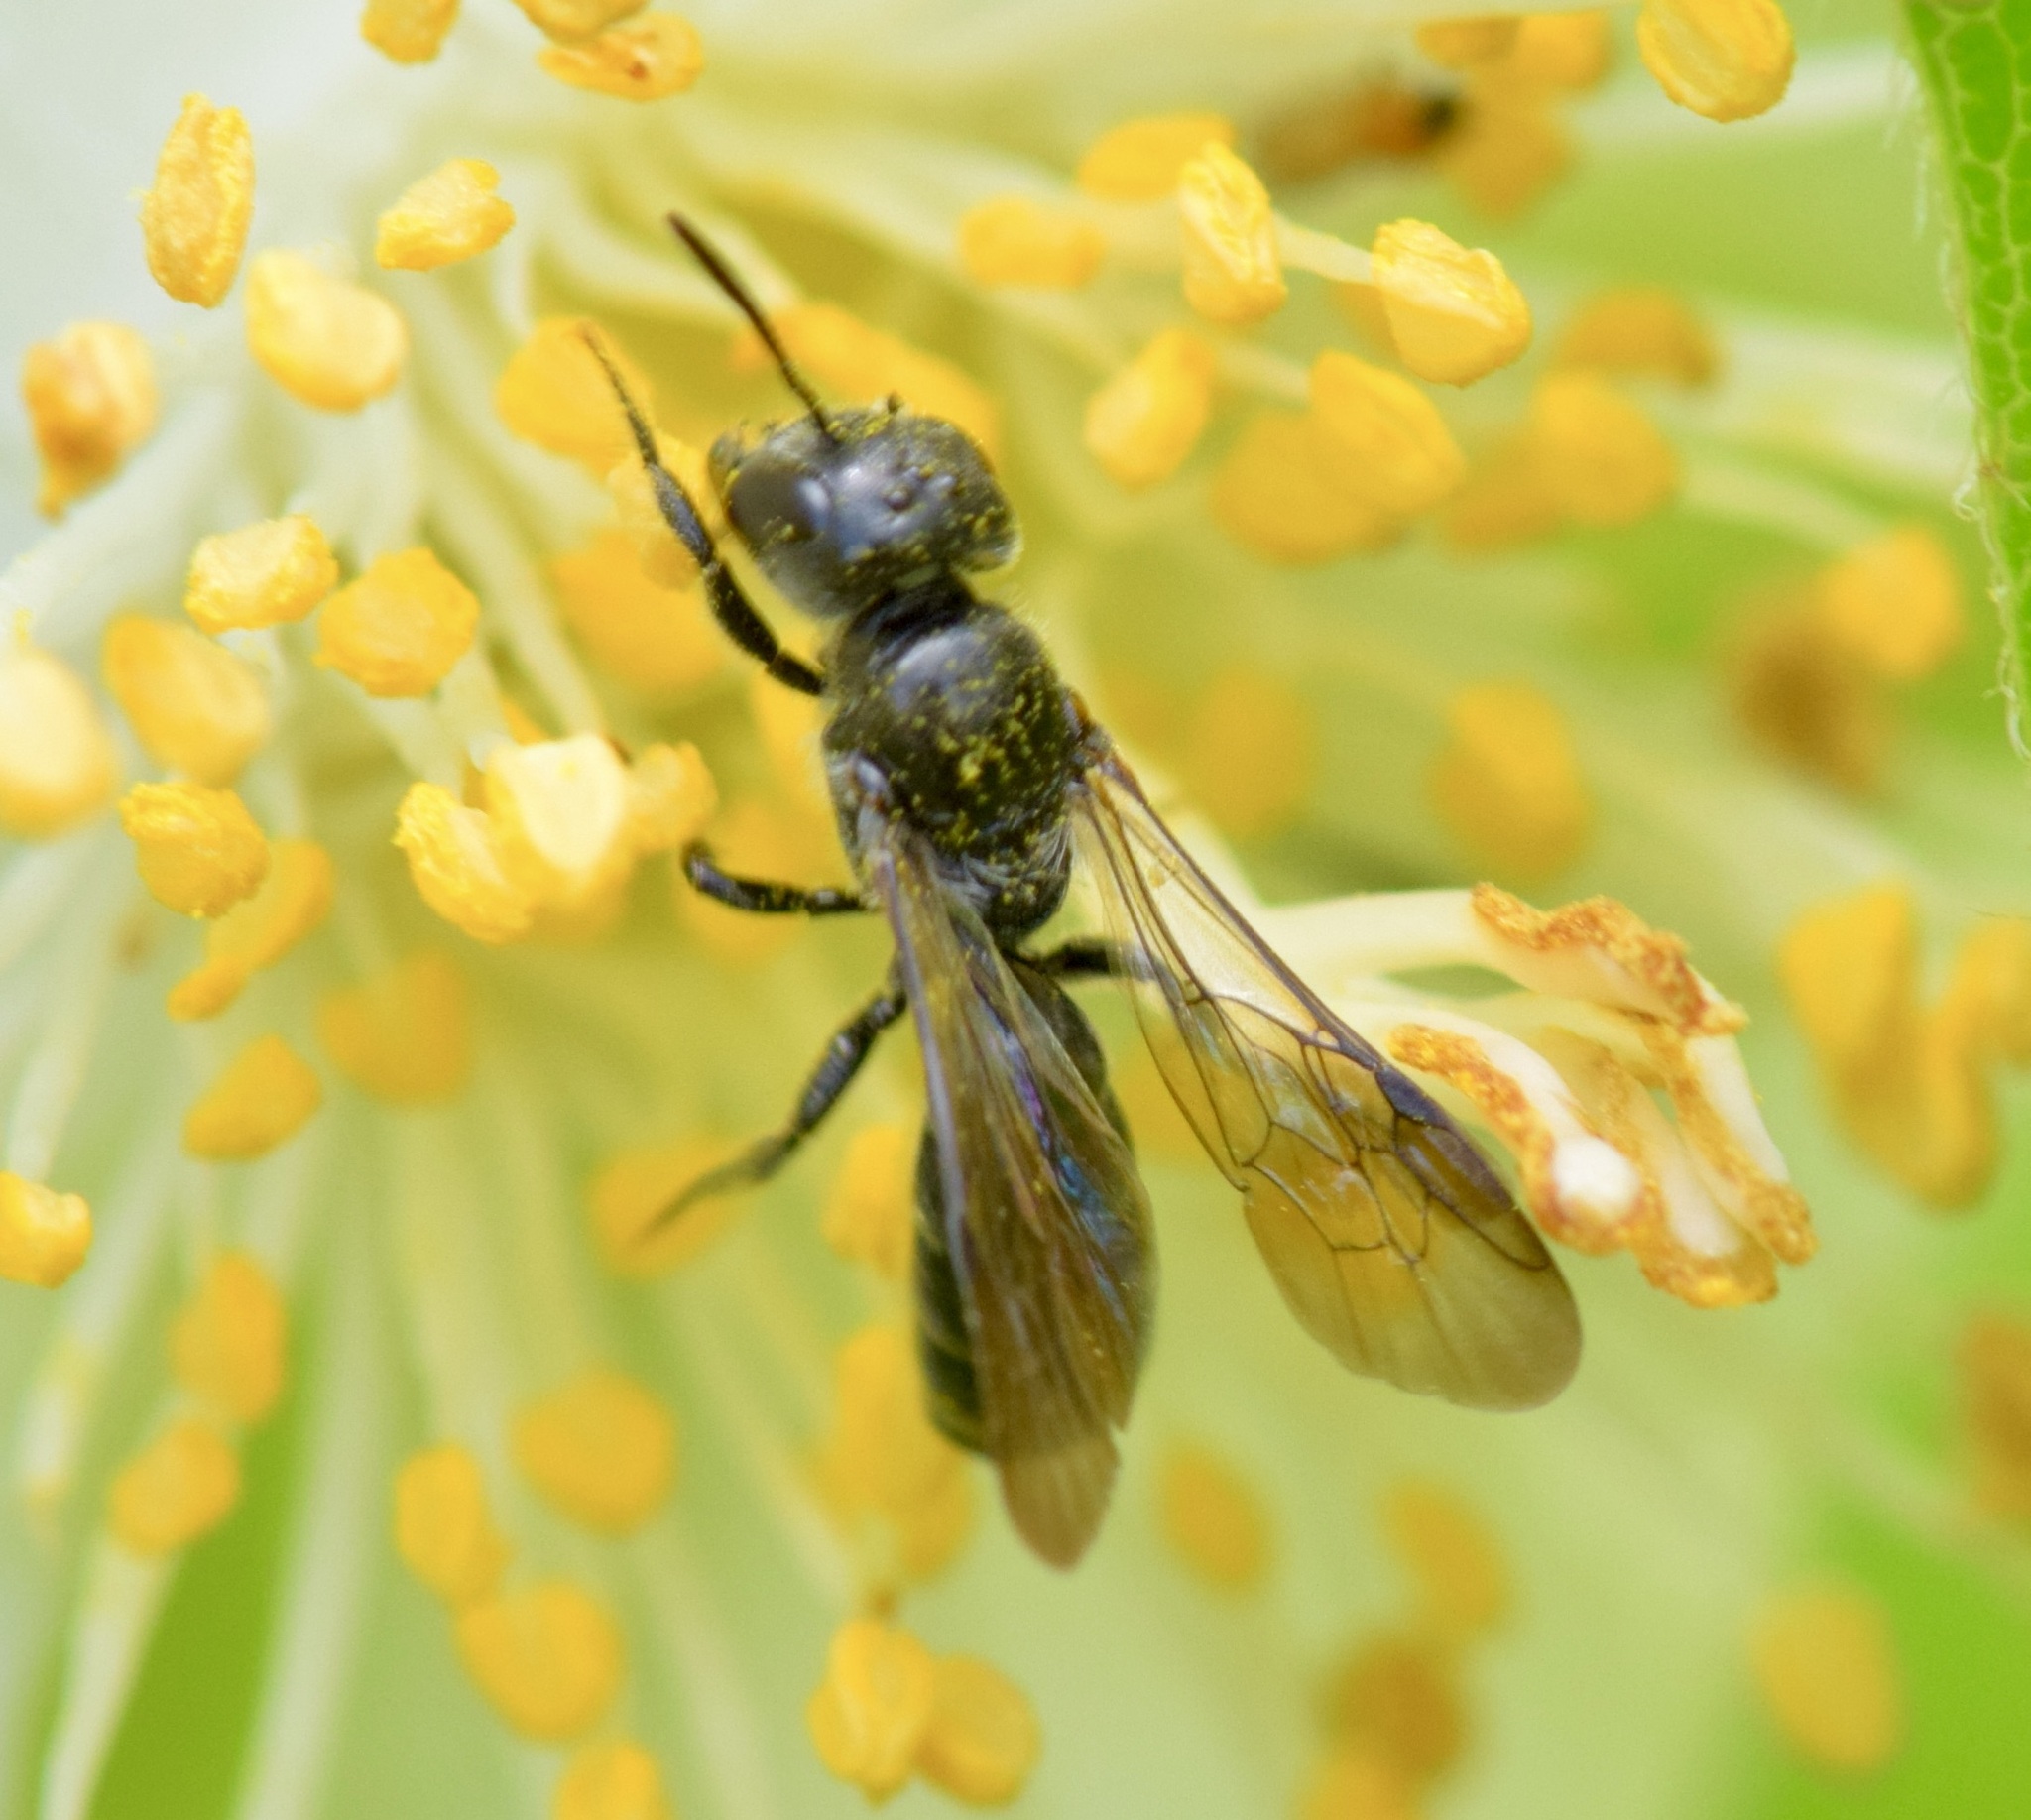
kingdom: Animalia
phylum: Arthropoda
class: Insecta
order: Hymenoptera
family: Megachilidae
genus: Chelostoma
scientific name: Chelostoma philadelphi
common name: Mock-orange scissor bee
